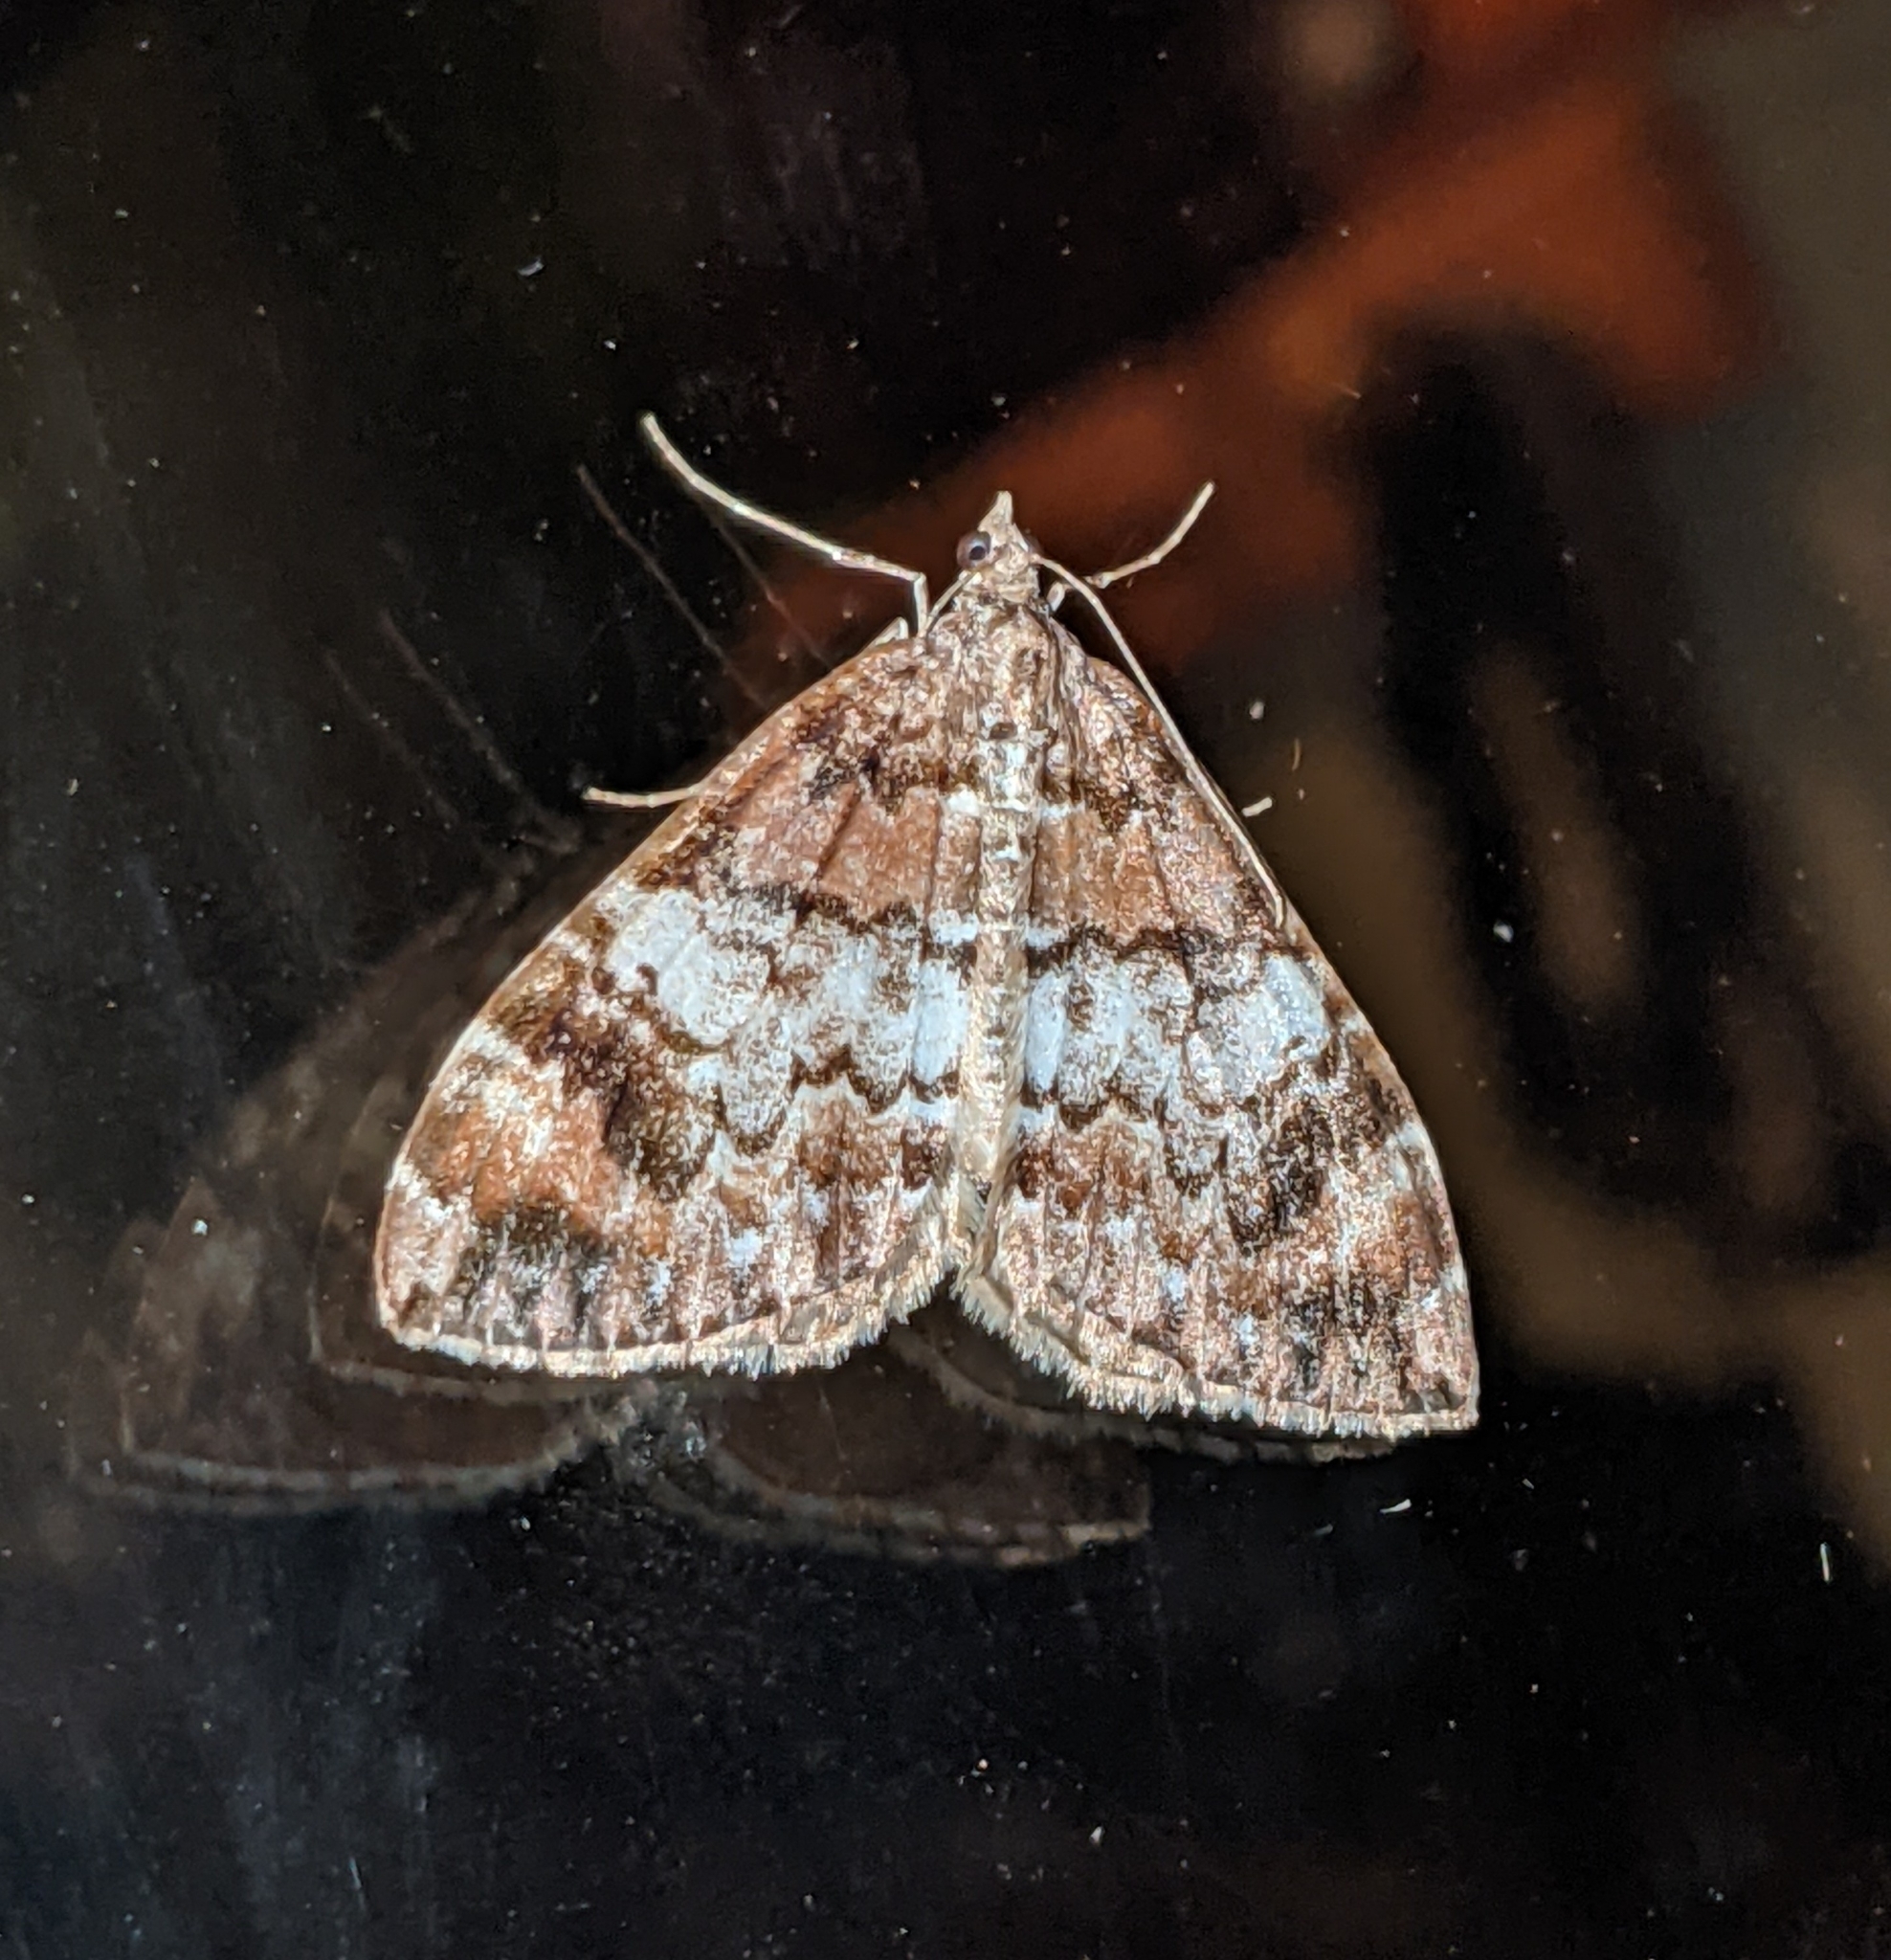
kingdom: Animalia
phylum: Arthropoda
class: Insecta
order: Lepidoptera
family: Geometridae
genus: Dysstroma
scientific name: Dysstroma sobria
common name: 10-spotted rhododendron moth
